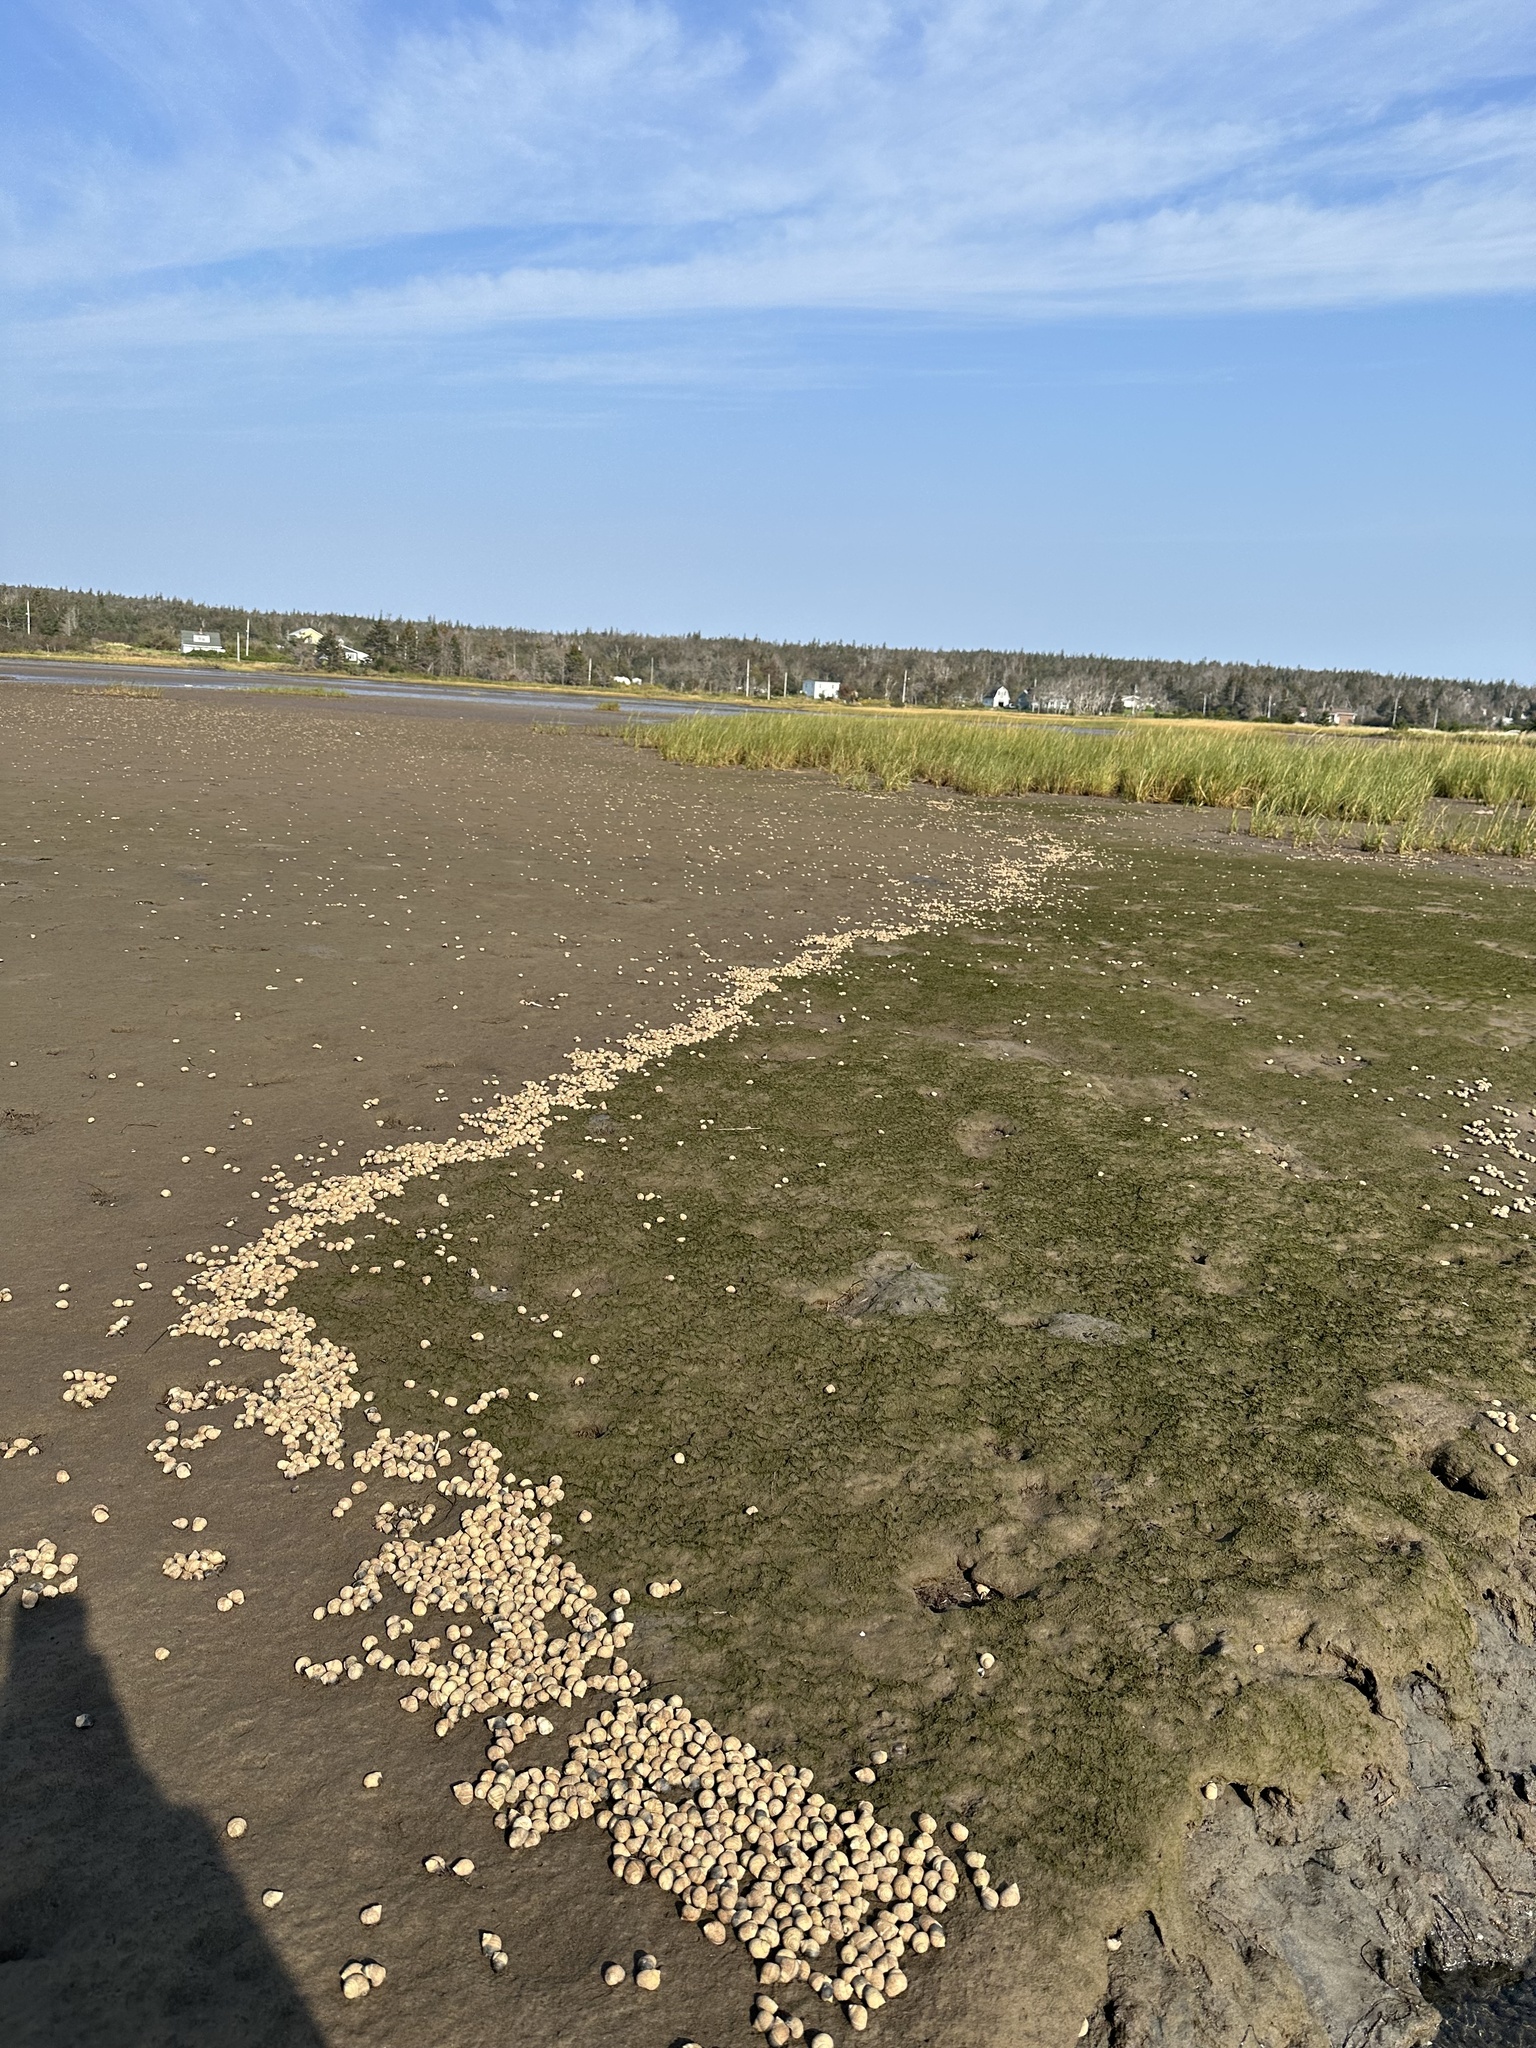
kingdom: Animalia
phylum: Mollusca
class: Gastropoda
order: Littorinimorpha
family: Littorinidae
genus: Littorina
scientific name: Littorina littorea
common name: Common periwinkle
